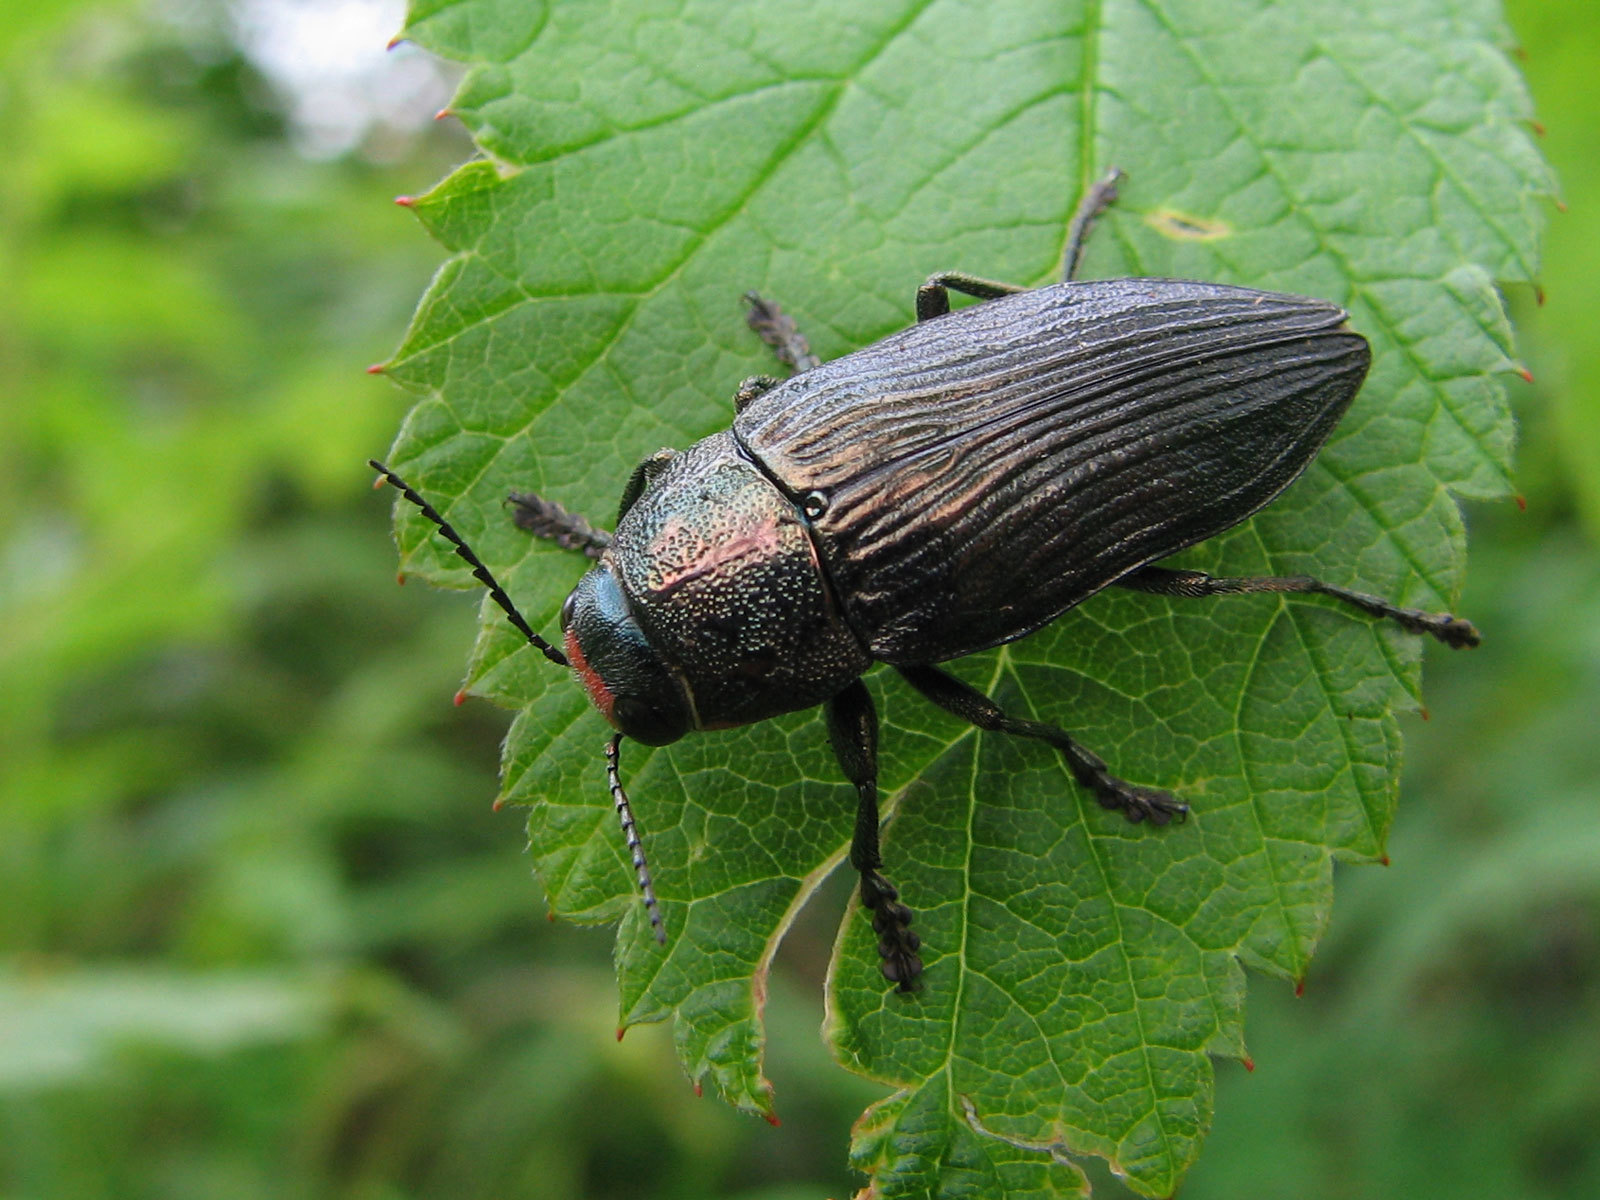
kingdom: Animalia
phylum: Arthropoda
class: Insecta
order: Coleoptera
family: Buprestidae
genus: Buprestis
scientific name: Buprestis lyrata
